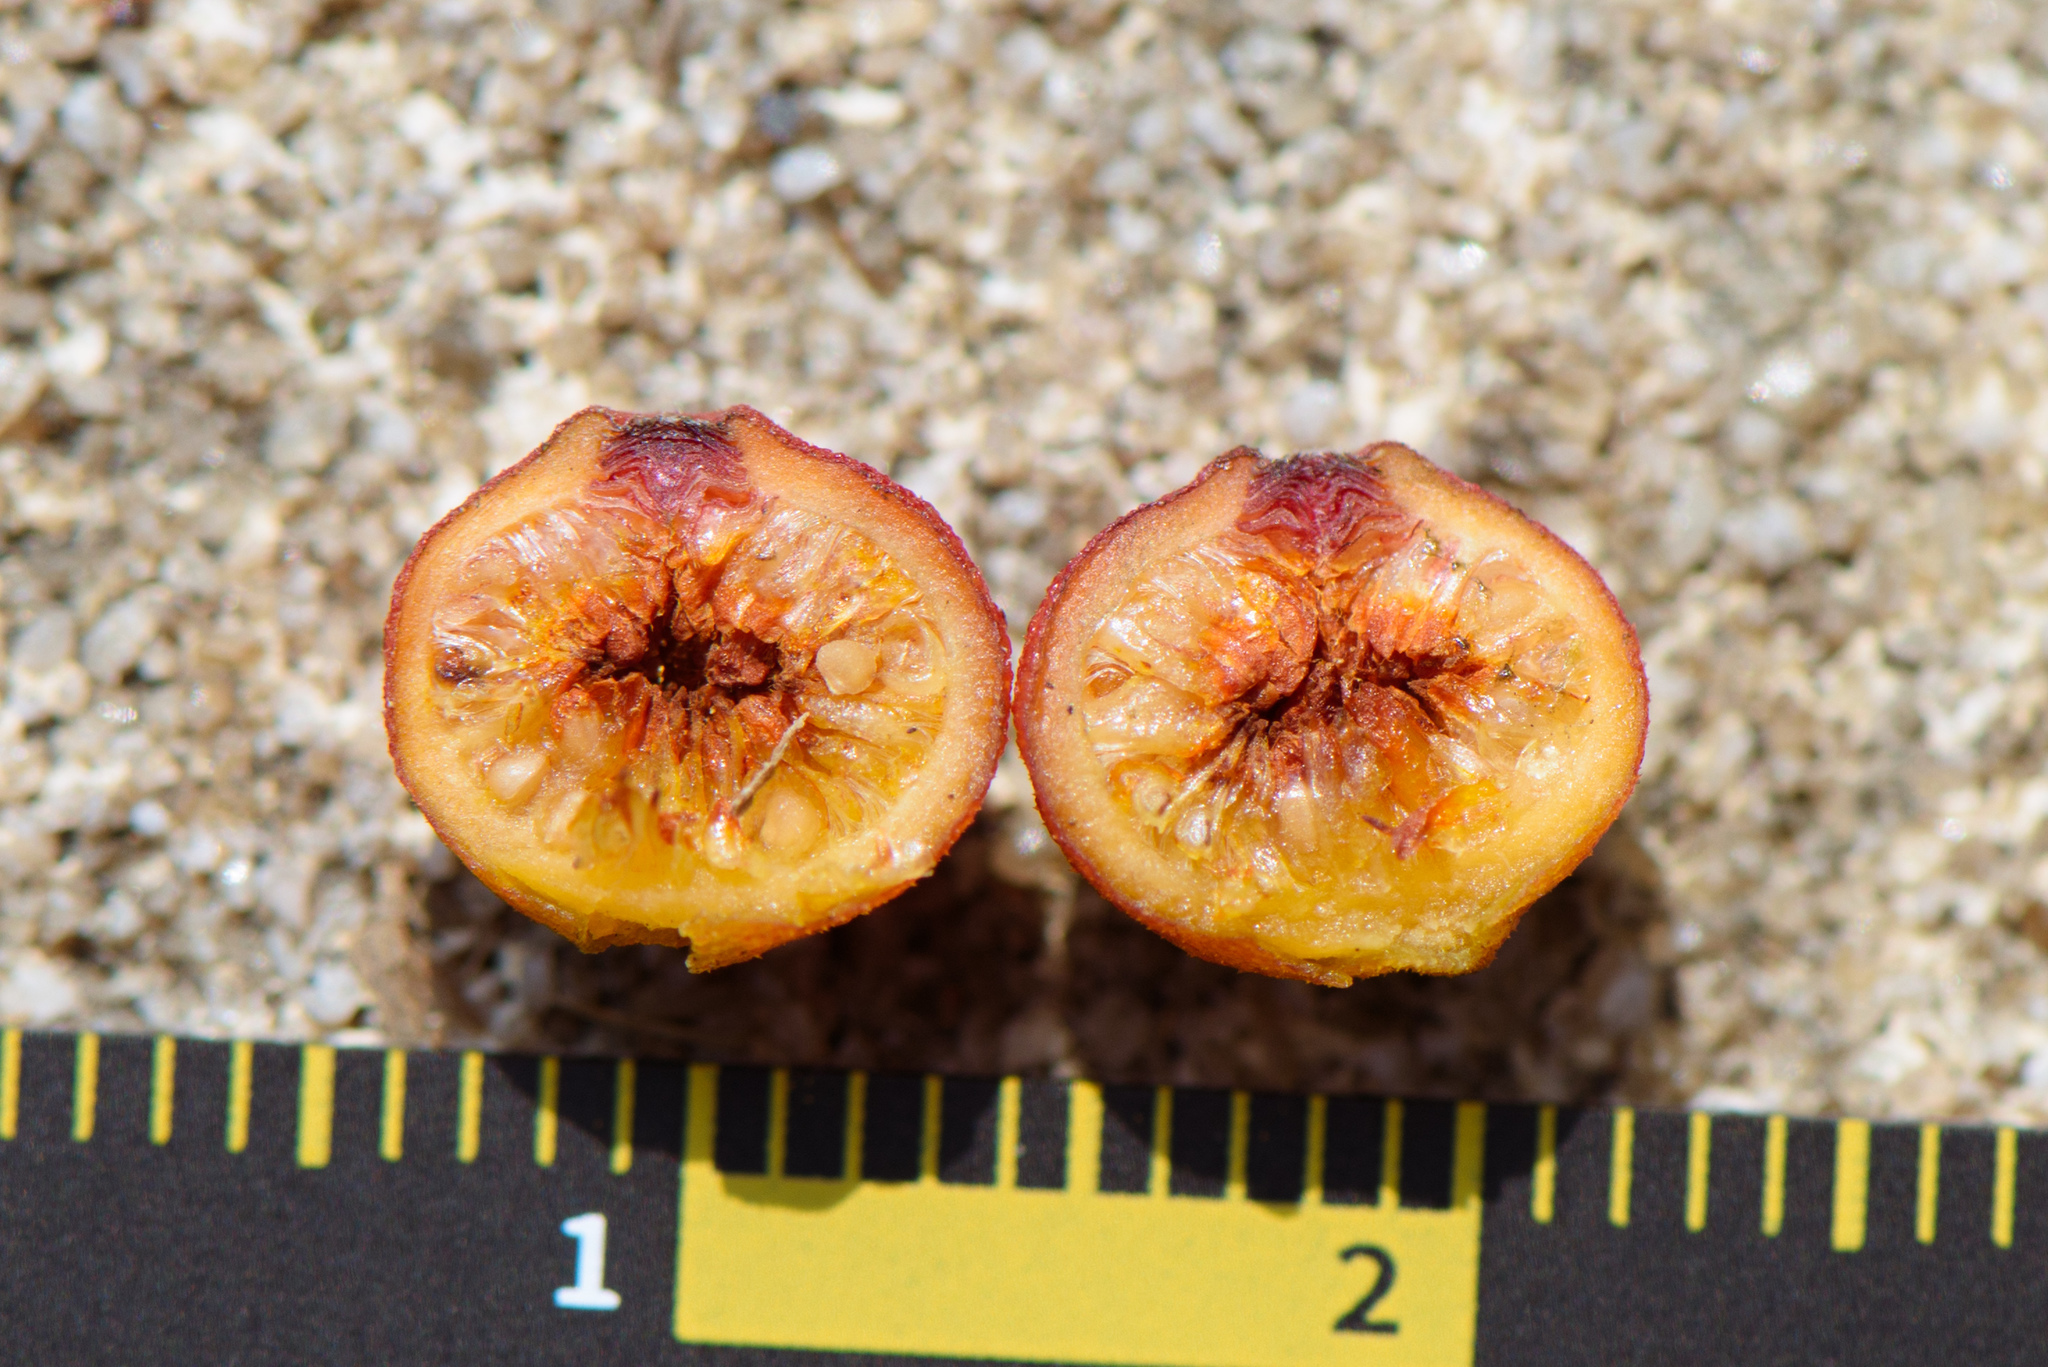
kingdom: Plantae
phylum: Tracheophyta
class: Magnoliopsida
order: Rosales
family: Moraceae
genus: Ficus
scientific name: Ficus ampelos
